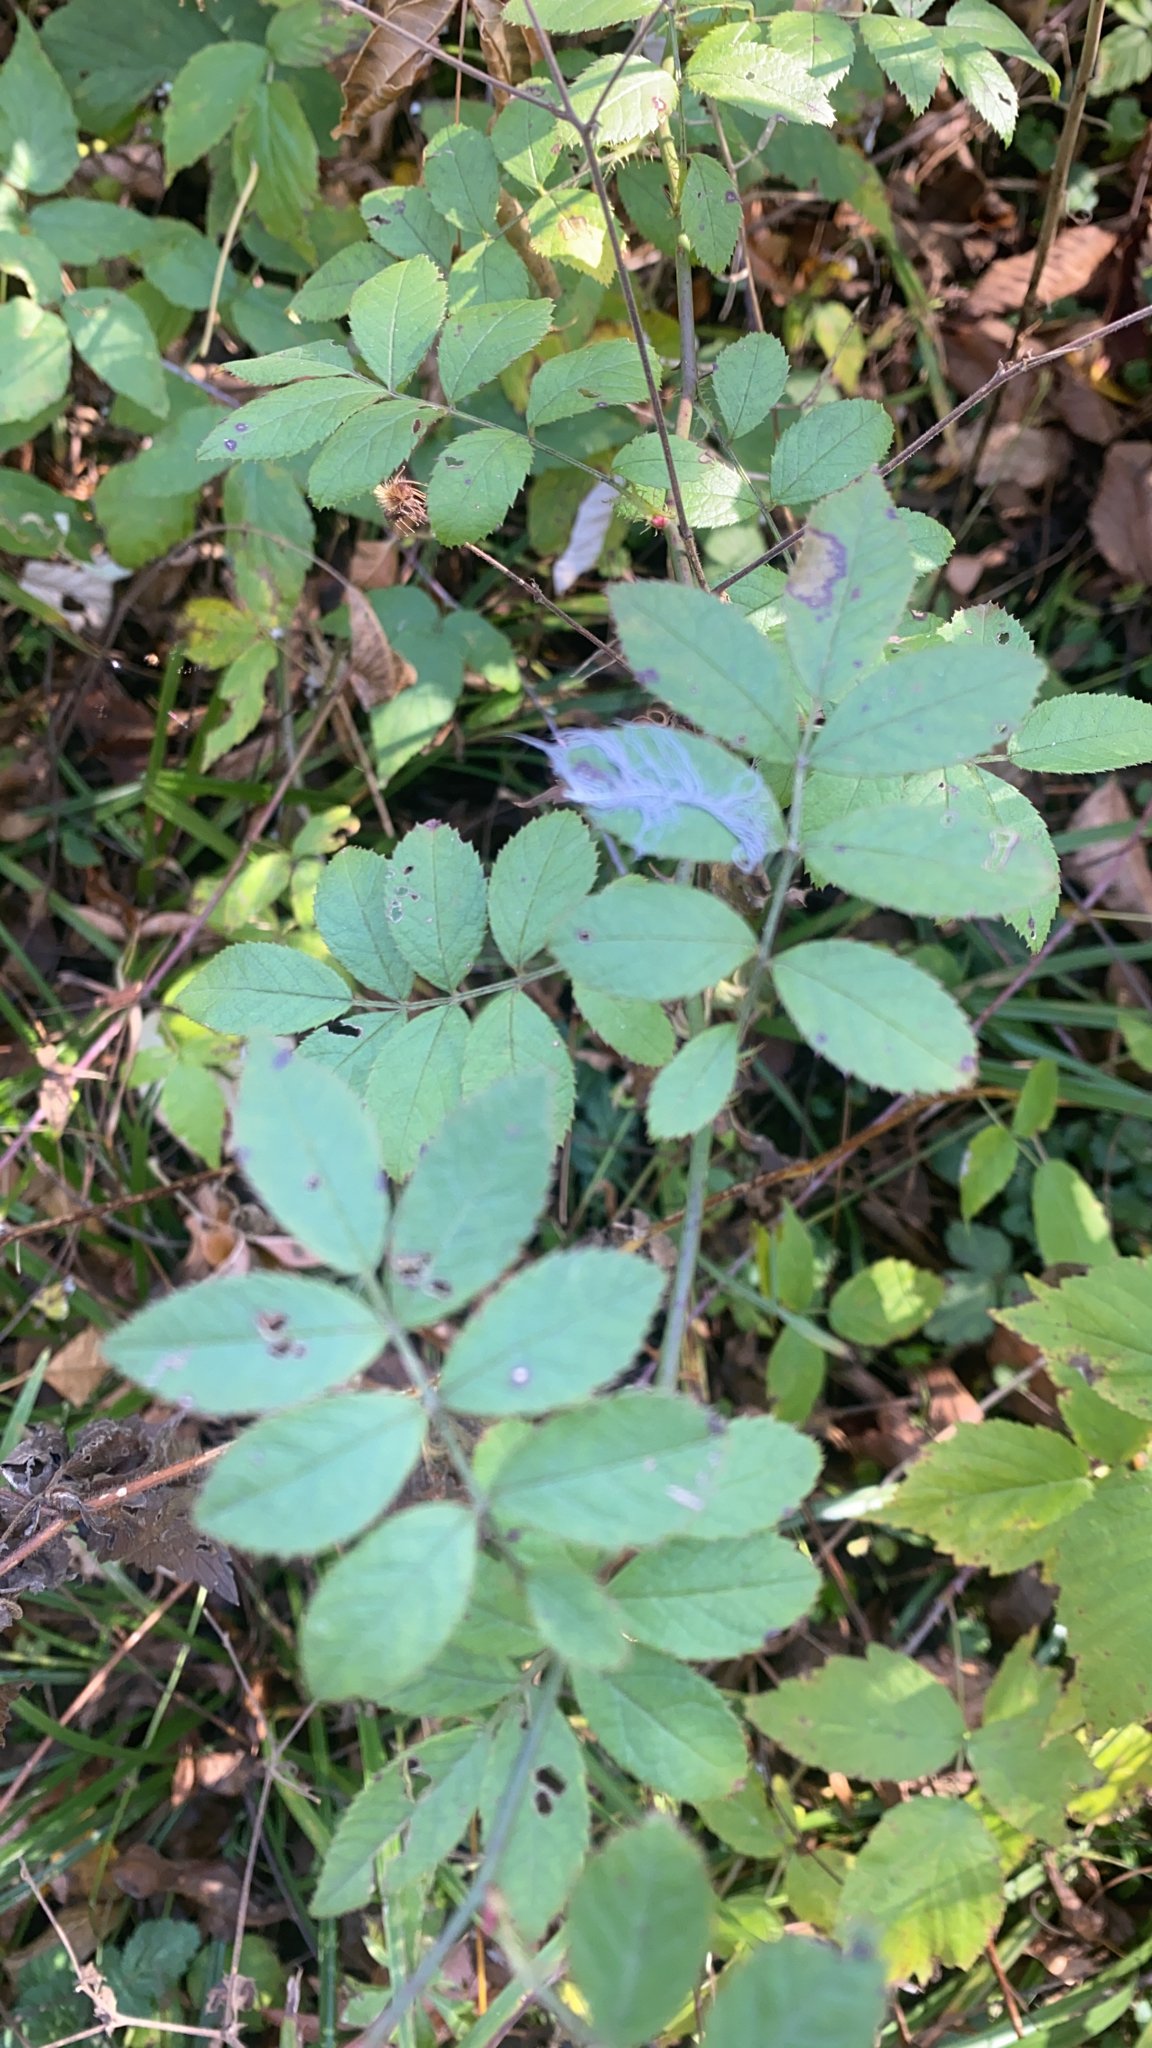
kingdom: Plantae
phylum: Tracheophyta
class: Magnoliopsida
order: Rosales
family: Rosaceae
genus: Rosa
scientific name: Rosa multiflora
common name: Multiflora rose
